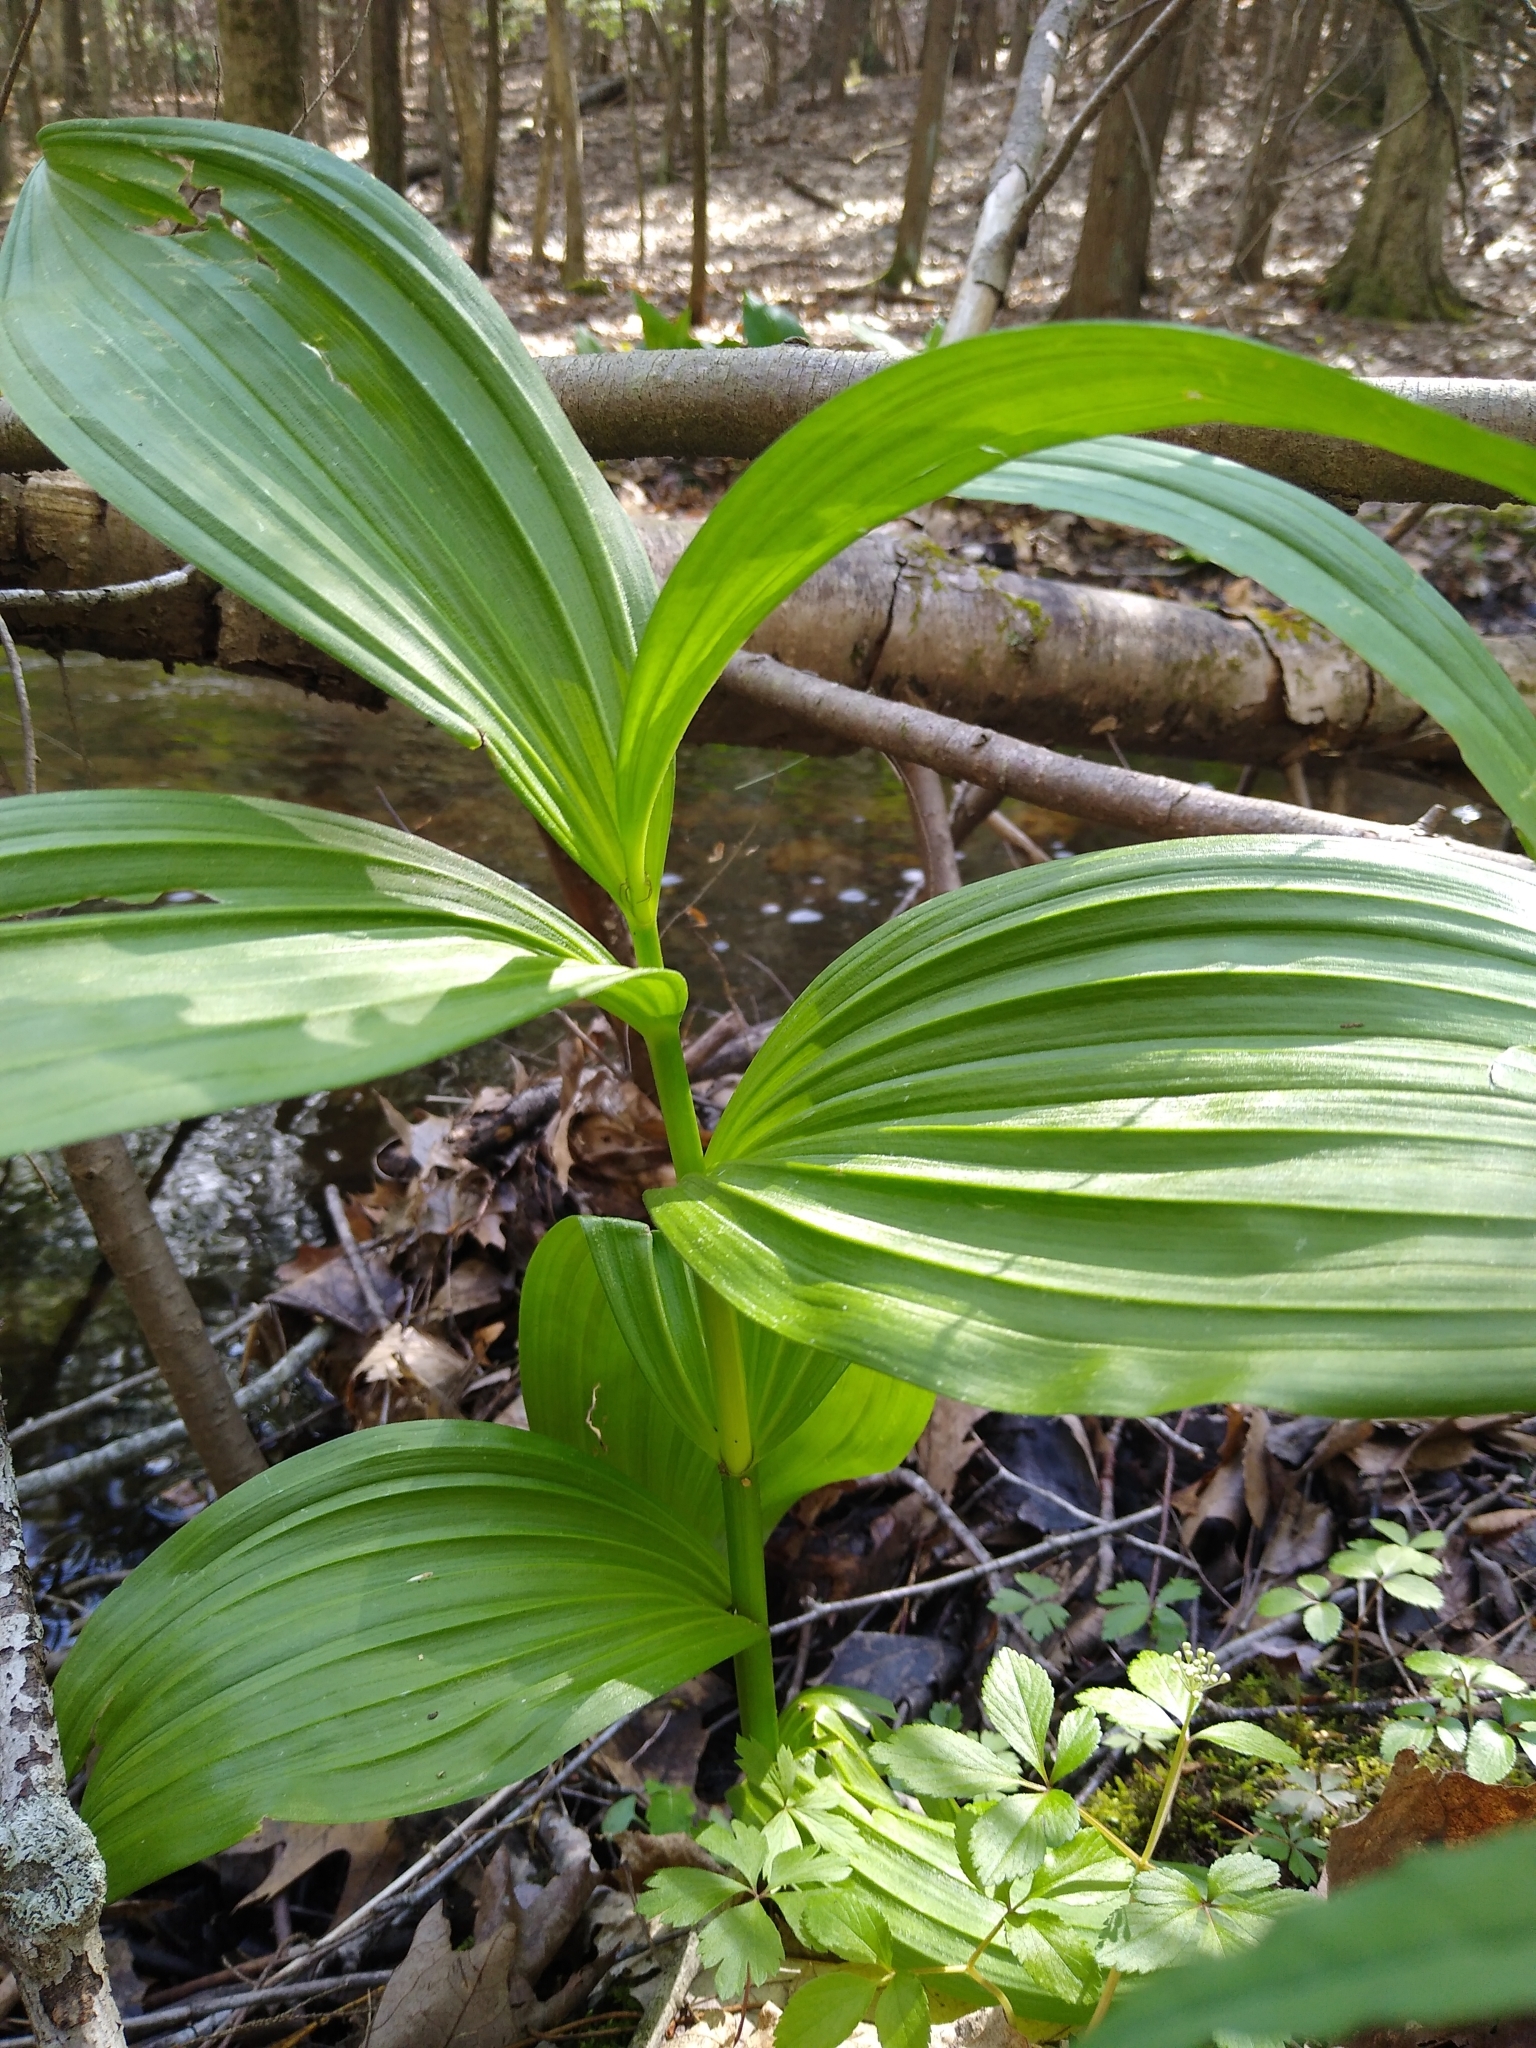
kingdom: Plantae
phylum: Tracheophyta
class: Liliopsida
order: Liliales
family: Melanthiaceae
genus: Veratrum
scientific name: Veratrum viride
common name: American false hellebore
